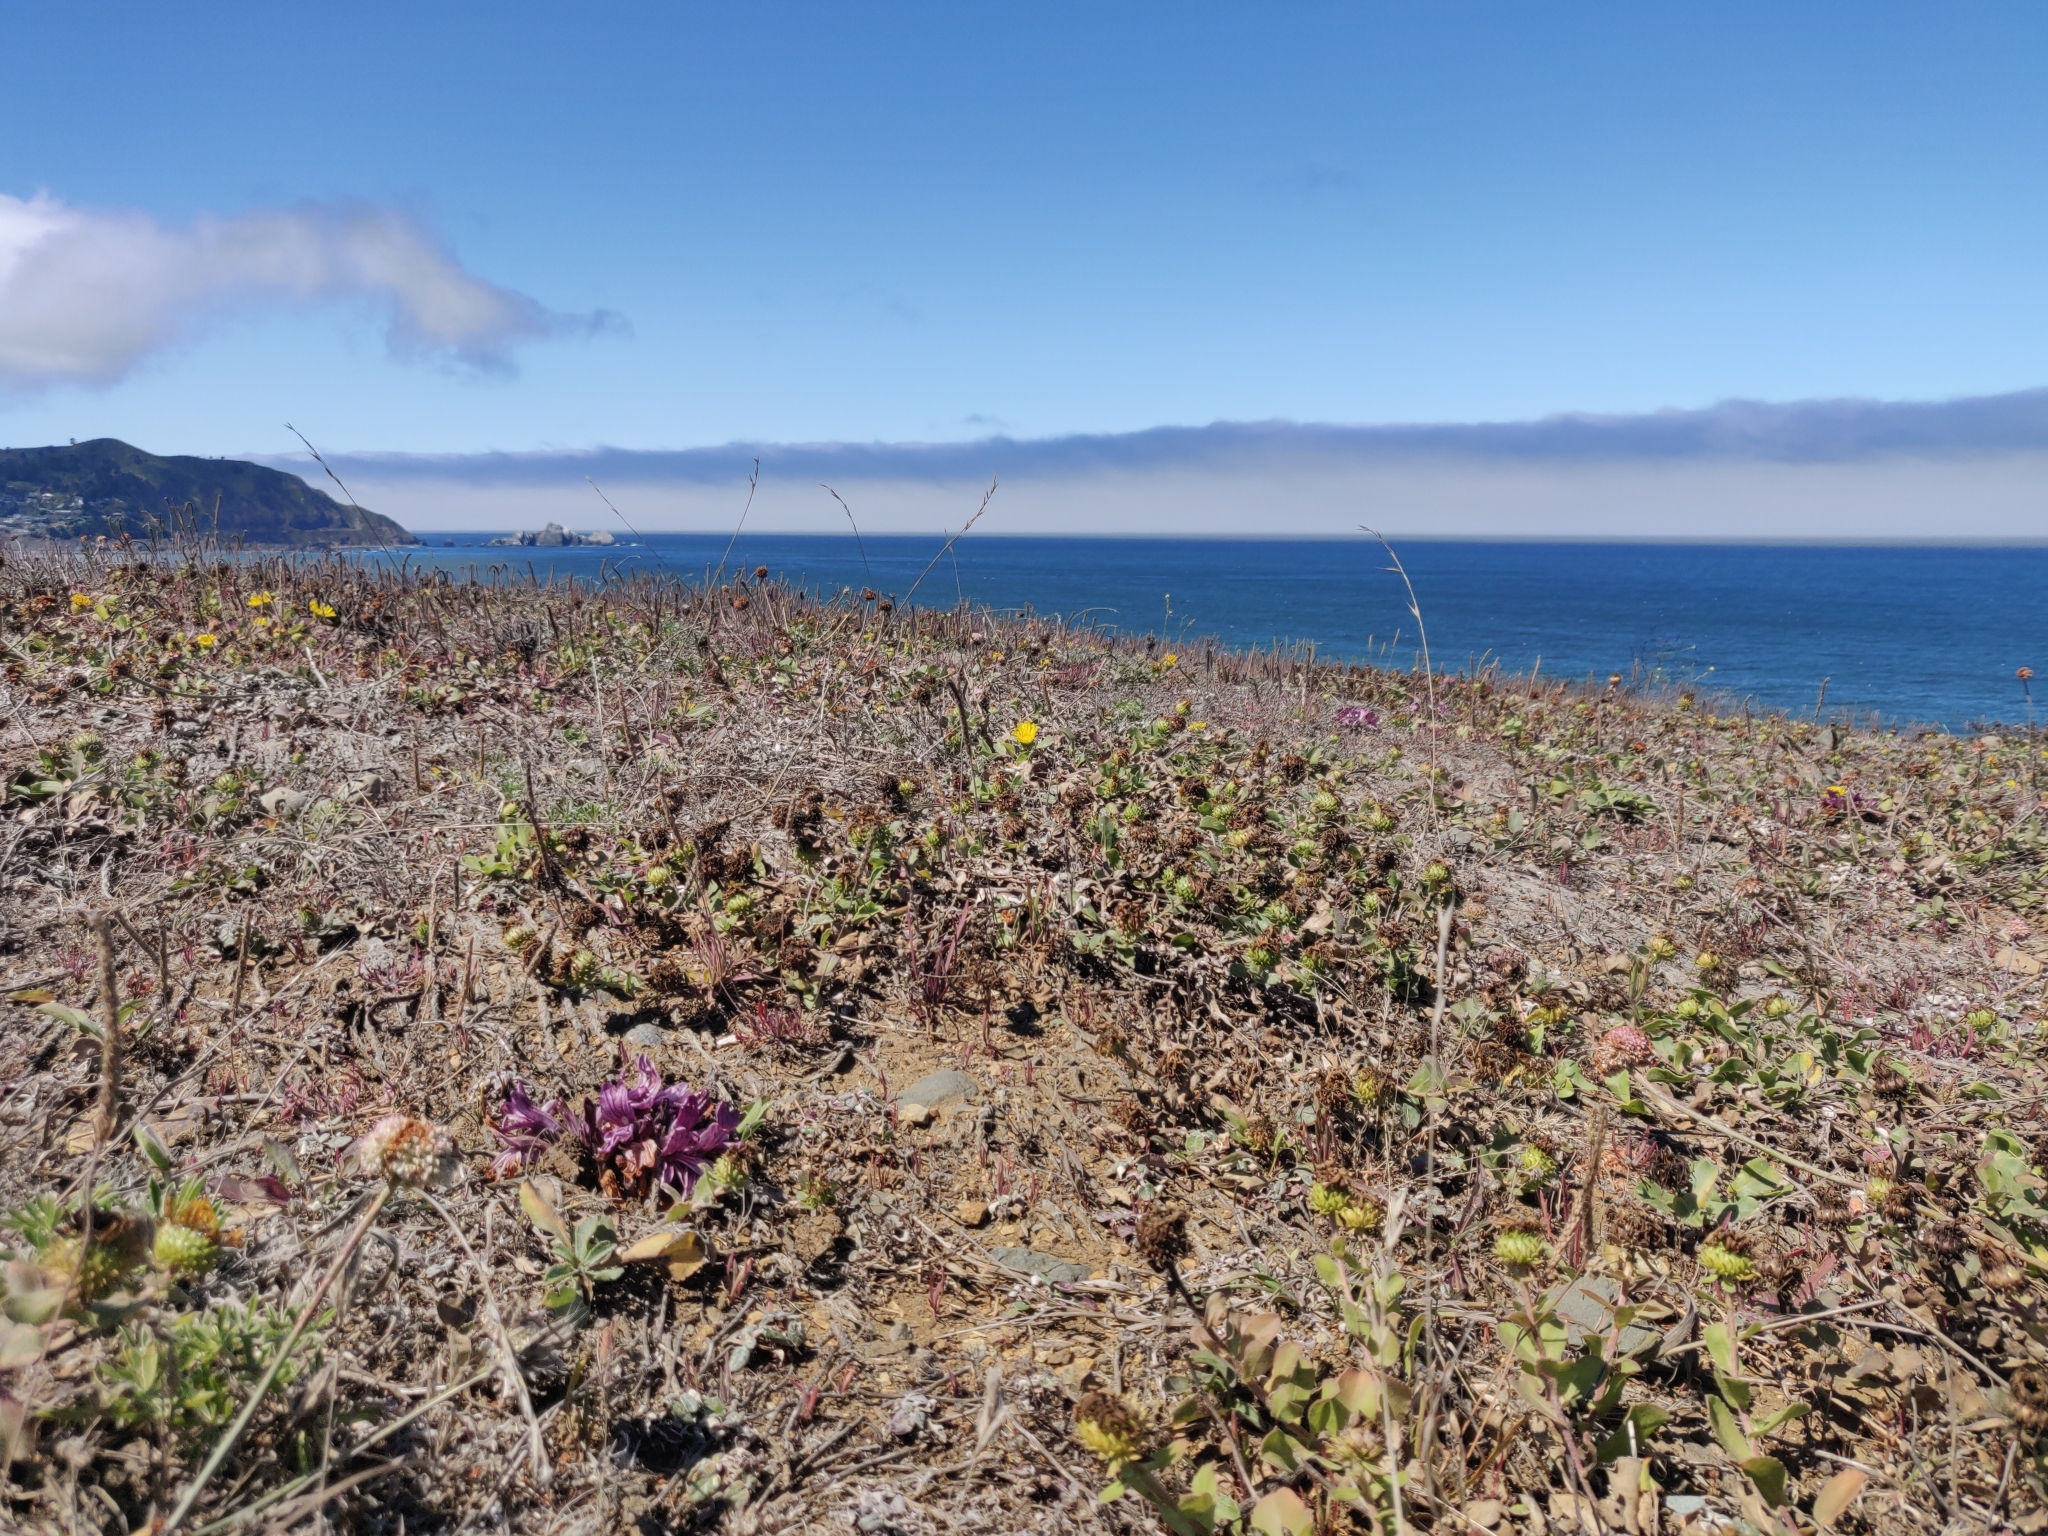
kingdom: Plantae
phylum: Tracheophyta
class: Magnoliopsida
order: Lamiales
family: Orobanchaceae
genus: Aphyllon
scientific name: Aphyllon californicum
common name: California broomrape
